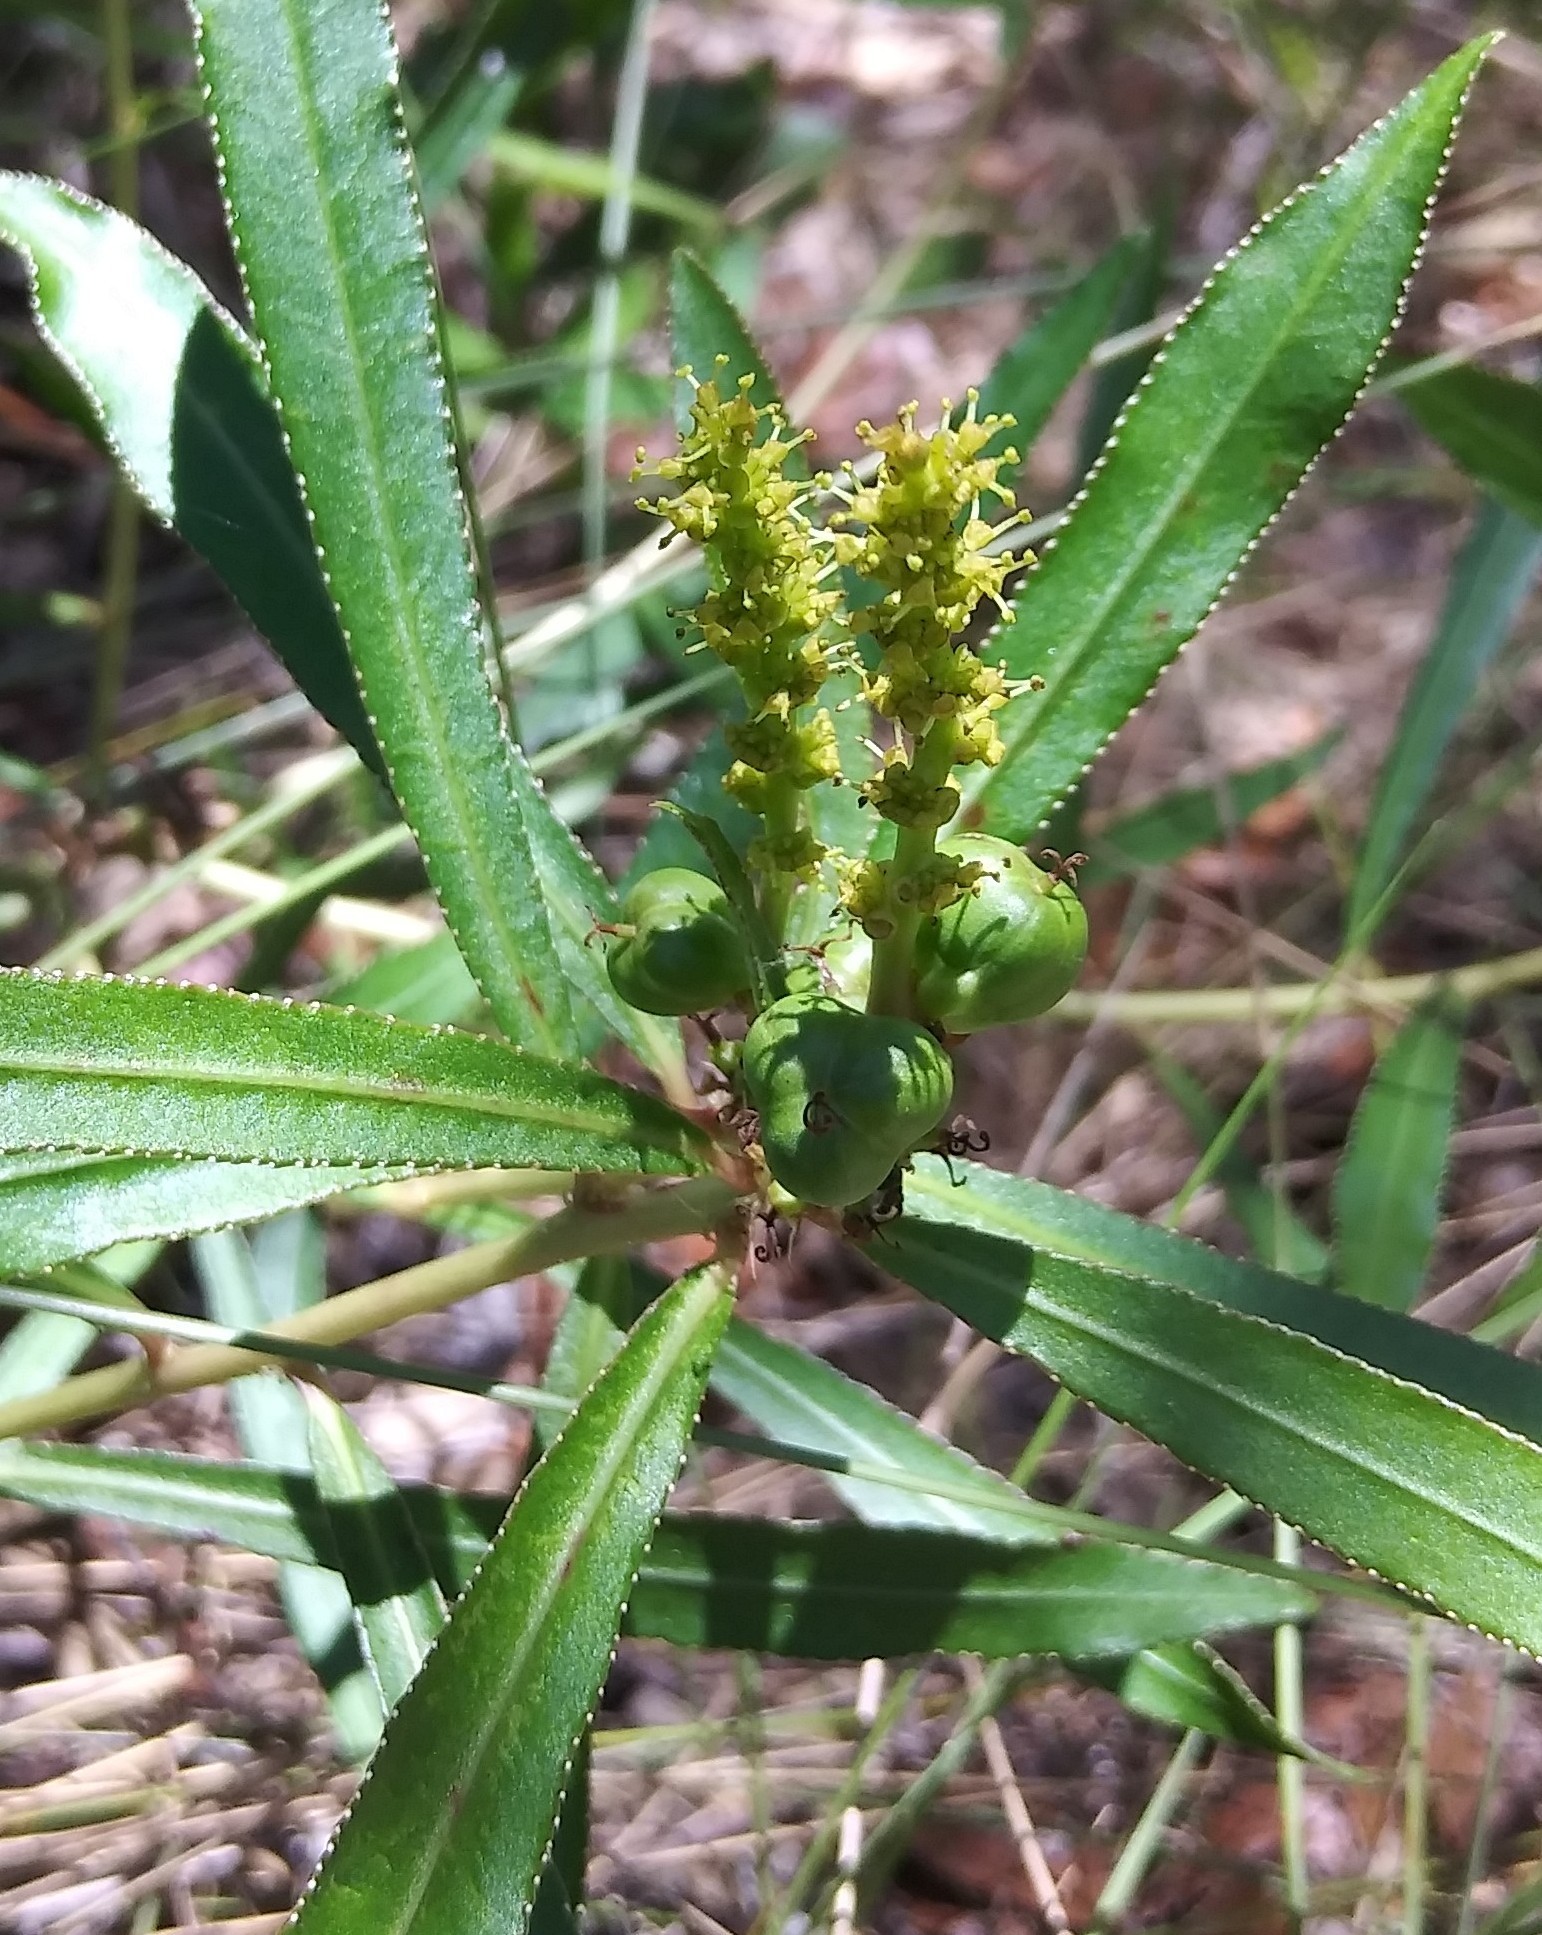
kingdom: Plantae
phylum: Tracheophyta
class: Magnoliopsida
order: Malpighiales
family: Euphorbiaceae
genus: Stillingia
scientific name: Stillingia sylvatica
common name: Queen's-delight
